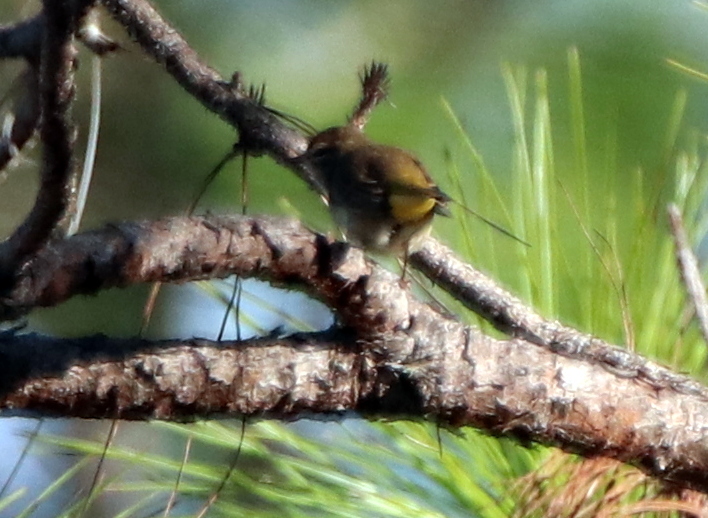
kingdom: Animalia
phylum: Chordata
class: Aves
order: Passeriformes
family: Parulidae
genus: Setophaga
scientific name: Setophaga palmarum
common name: Palm warbler
